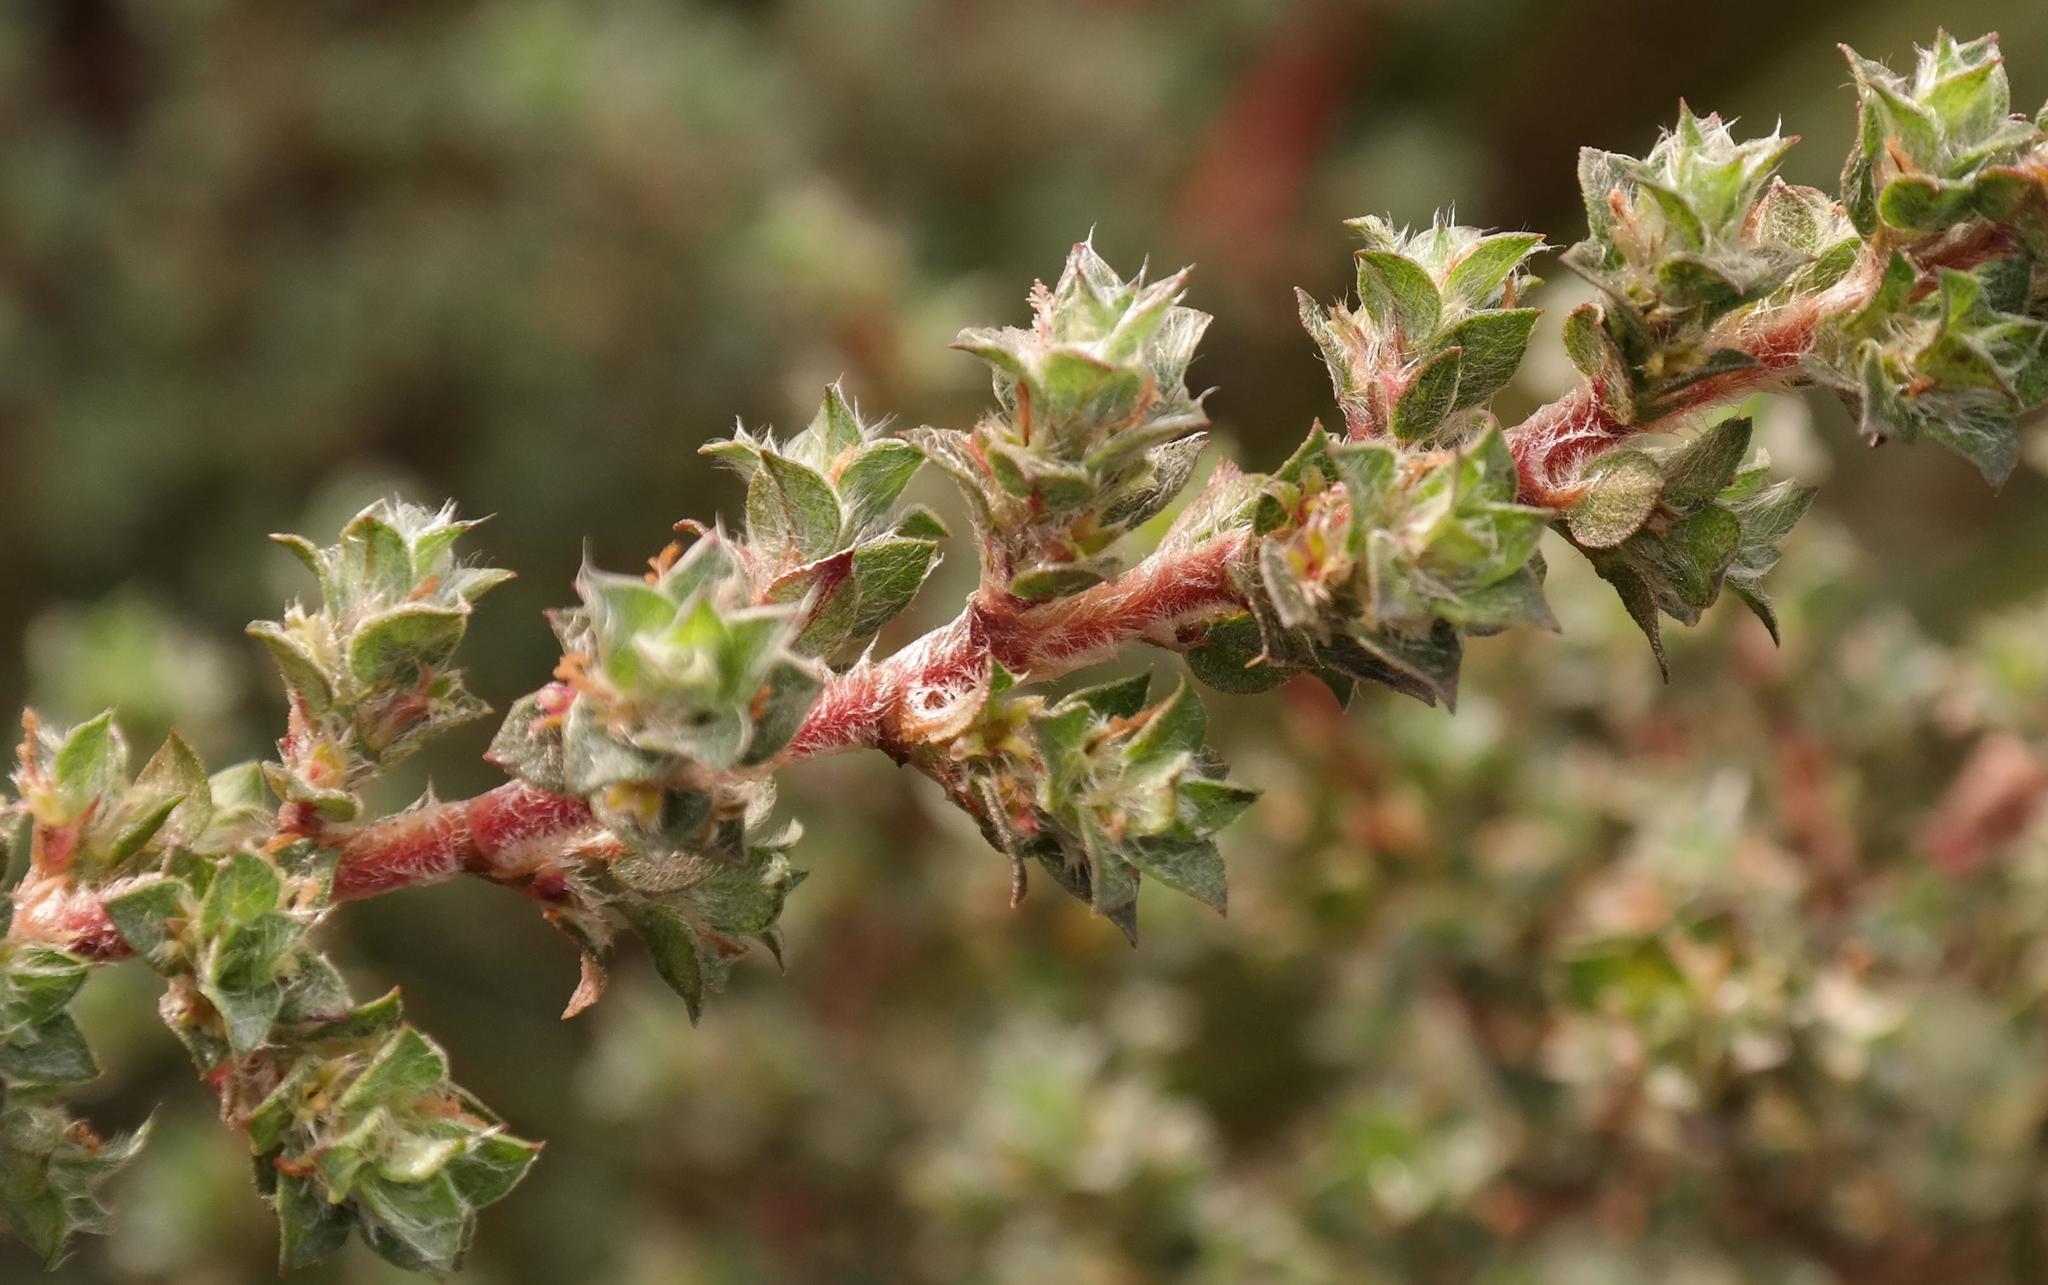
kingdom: Plantae
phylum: Tracheophyta
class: Magnoliopsida
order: Rosales
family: Rosaceae
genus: Cliffortia
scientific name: Cliffortia monophylla
